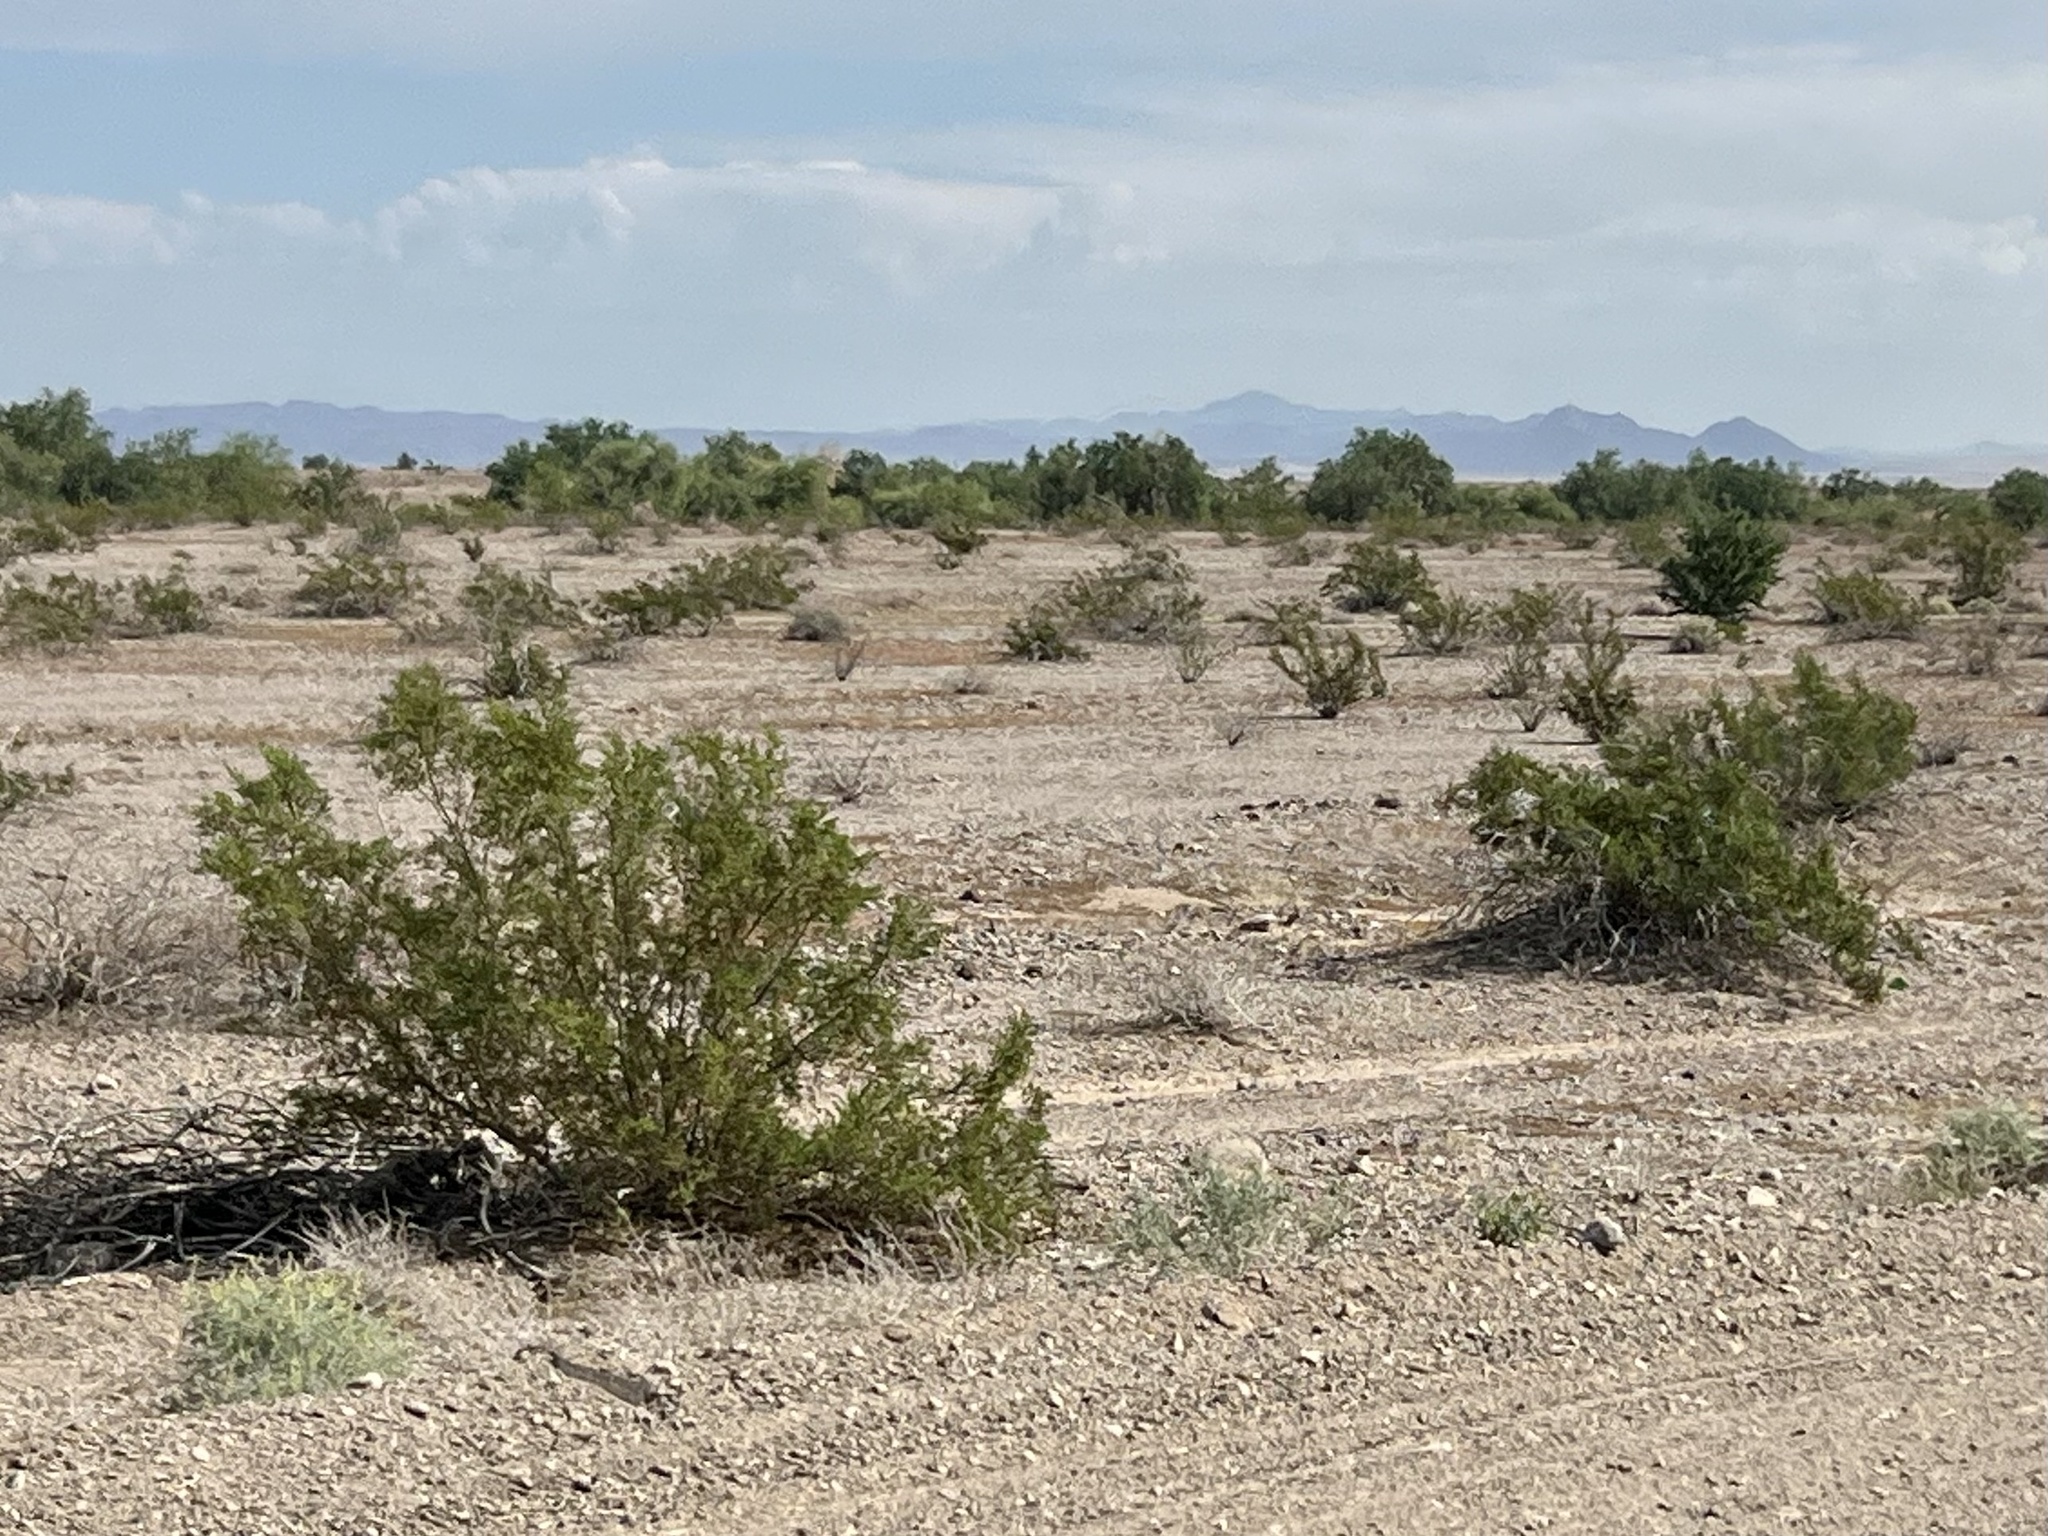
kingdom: Plantae
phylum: Tracheophyta
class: Magnoliopsida
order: Zygophyllales
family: Zygophyllaceae
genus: Larrea
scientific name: Larrea tridentata
